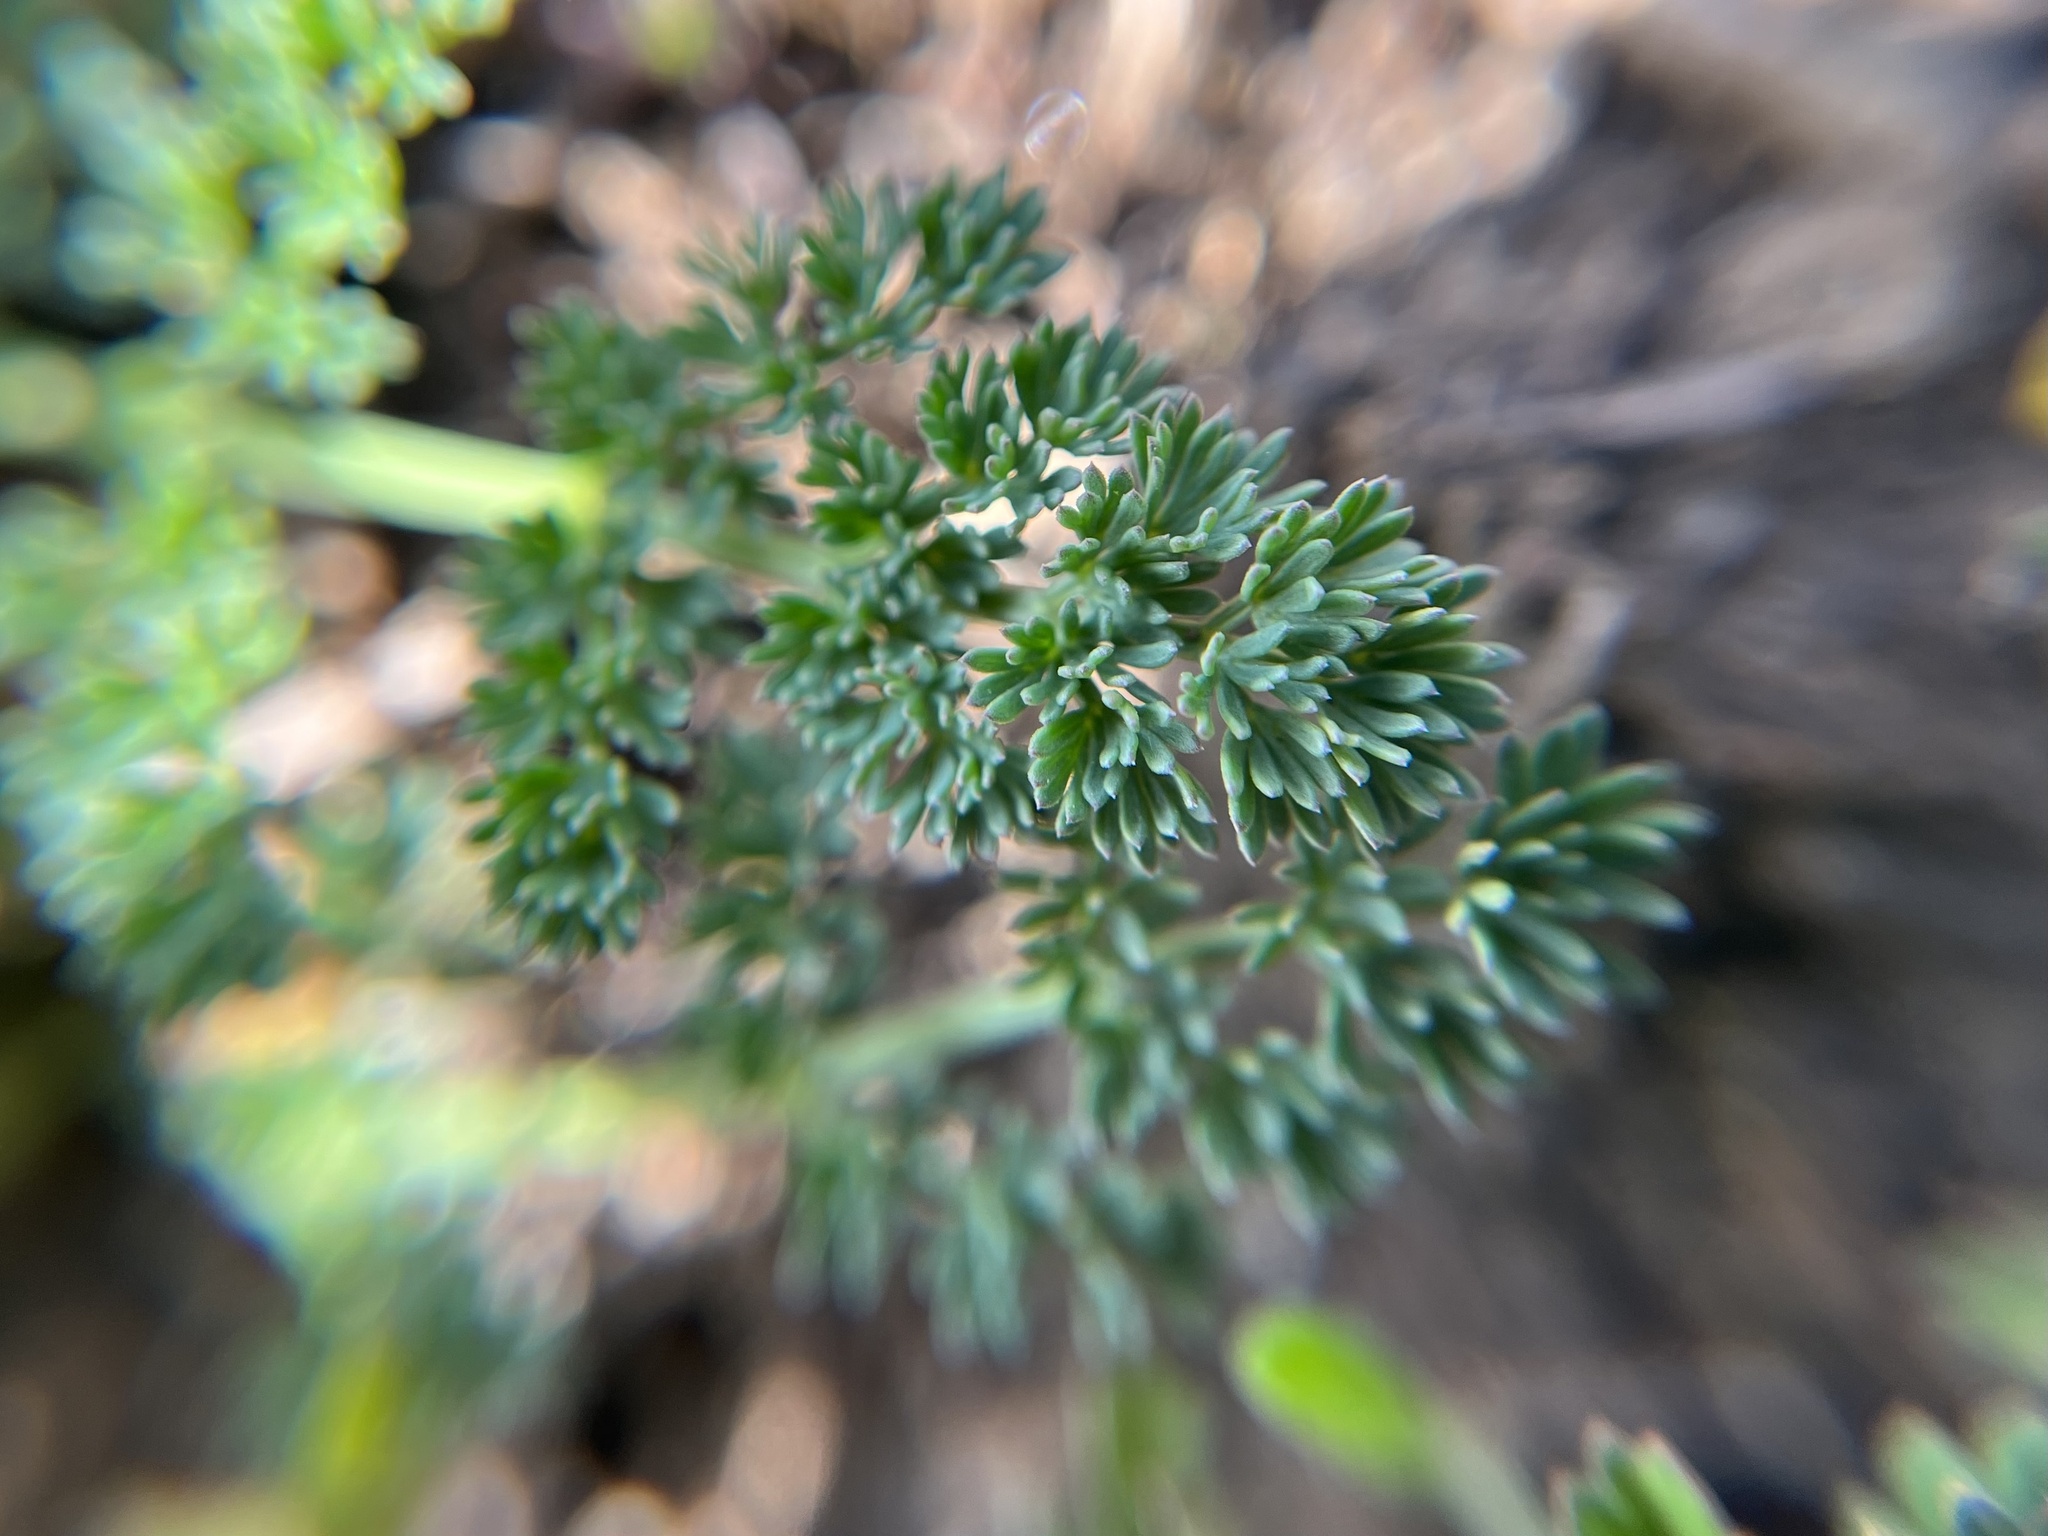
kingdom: Plantae
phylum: Tracheophyta
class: Magnoliopsida
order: Apiales
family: Apiaceae
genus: Hippomarathrum
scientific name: Hippomarathrum
